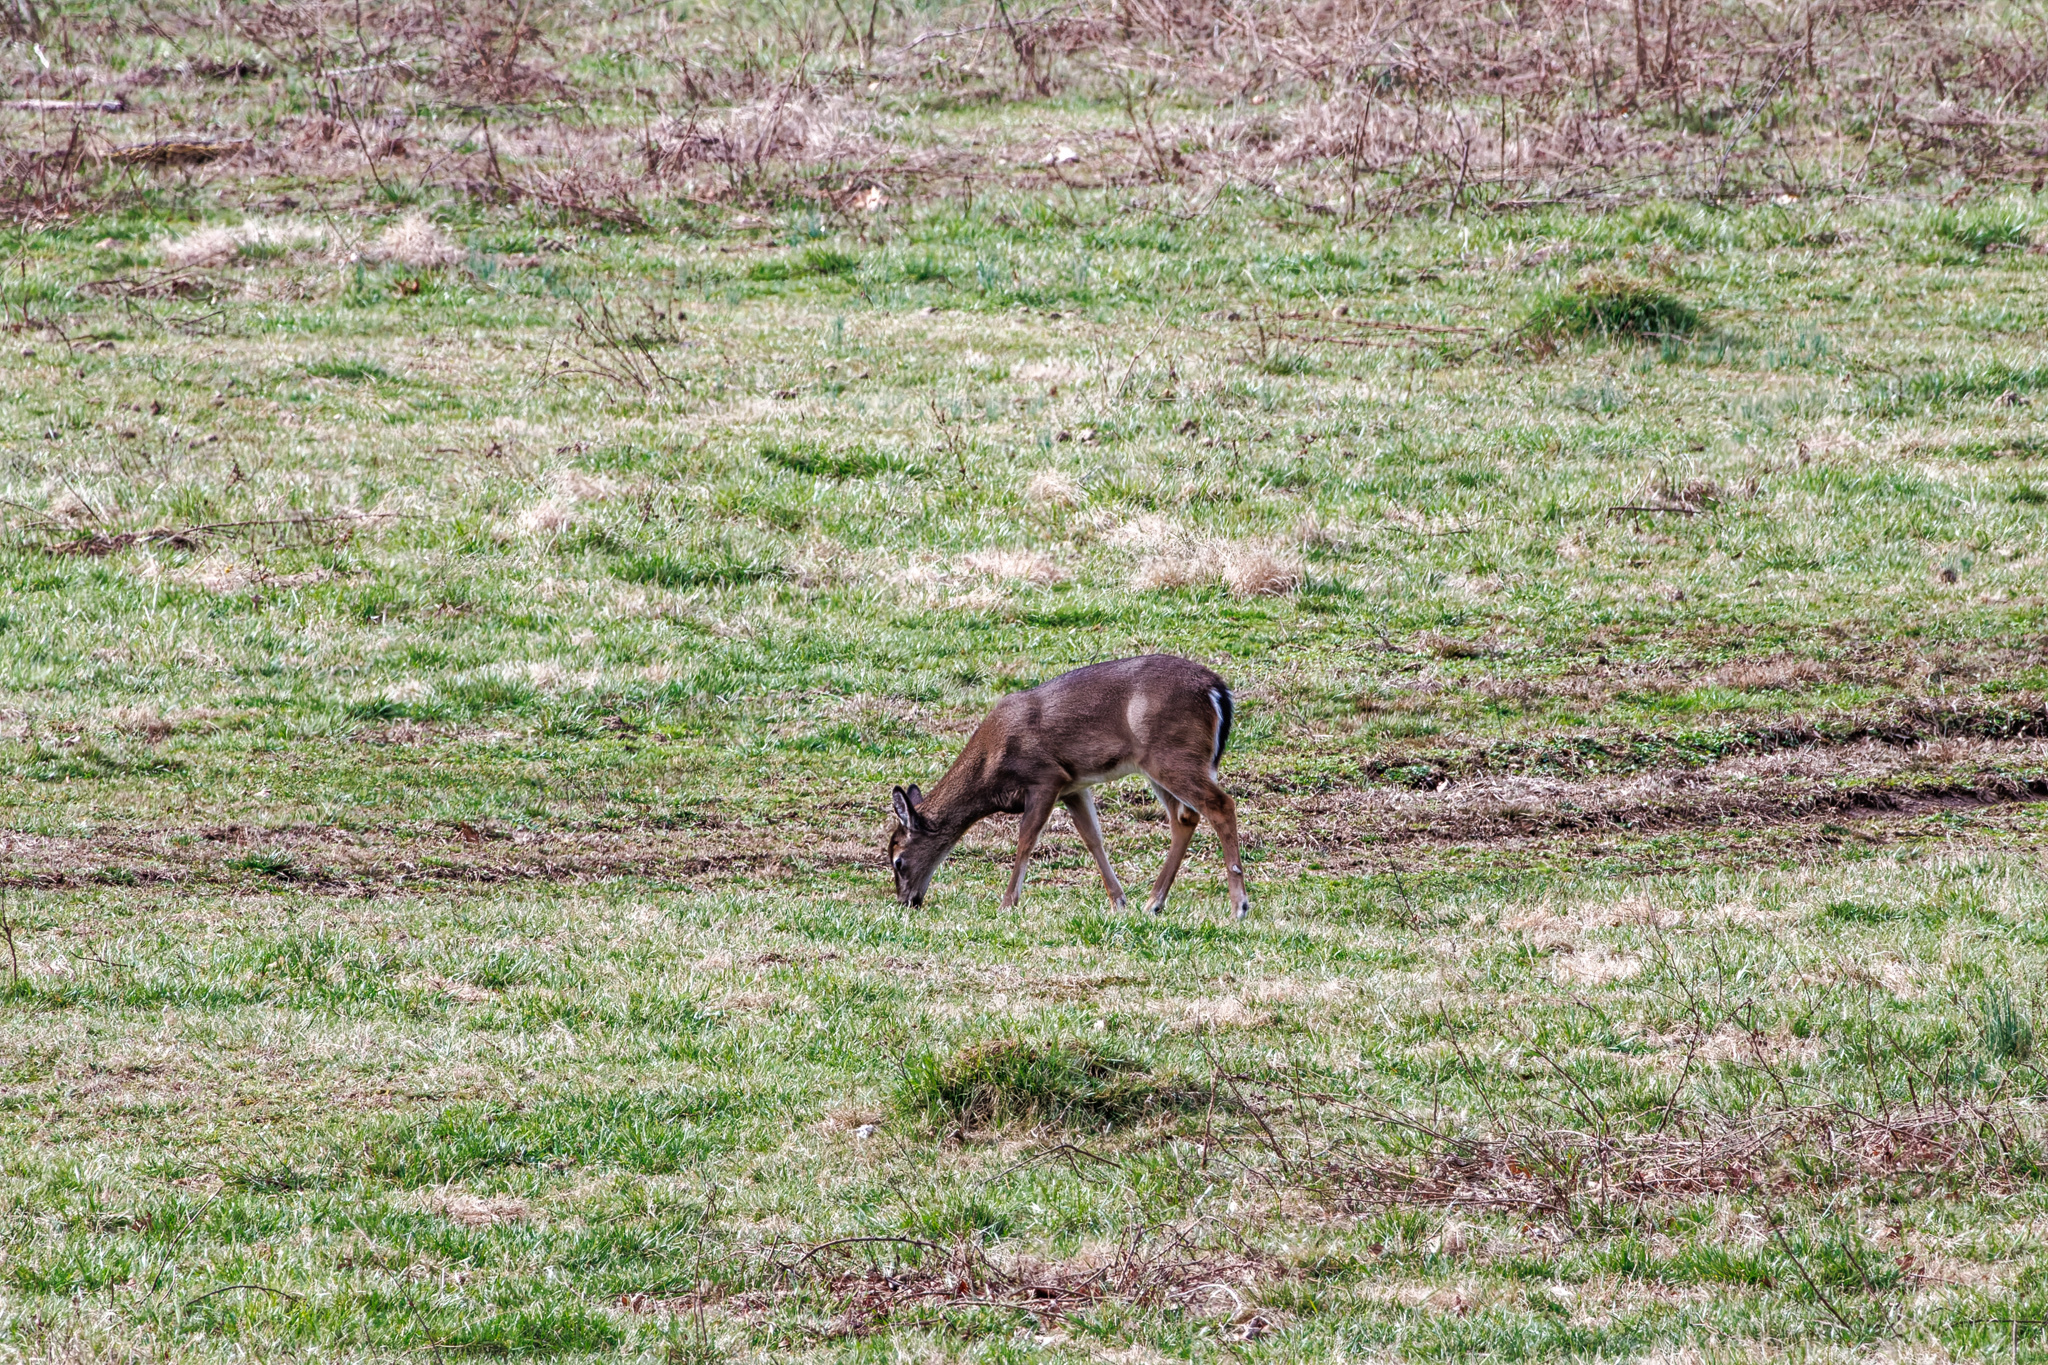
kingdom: Animalia
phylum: Chordata
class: Mammalia
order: Artiodactyla
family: Cervidae
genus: Odocoileus
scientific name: Odocoileus virginianus
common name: White-tailed deer
